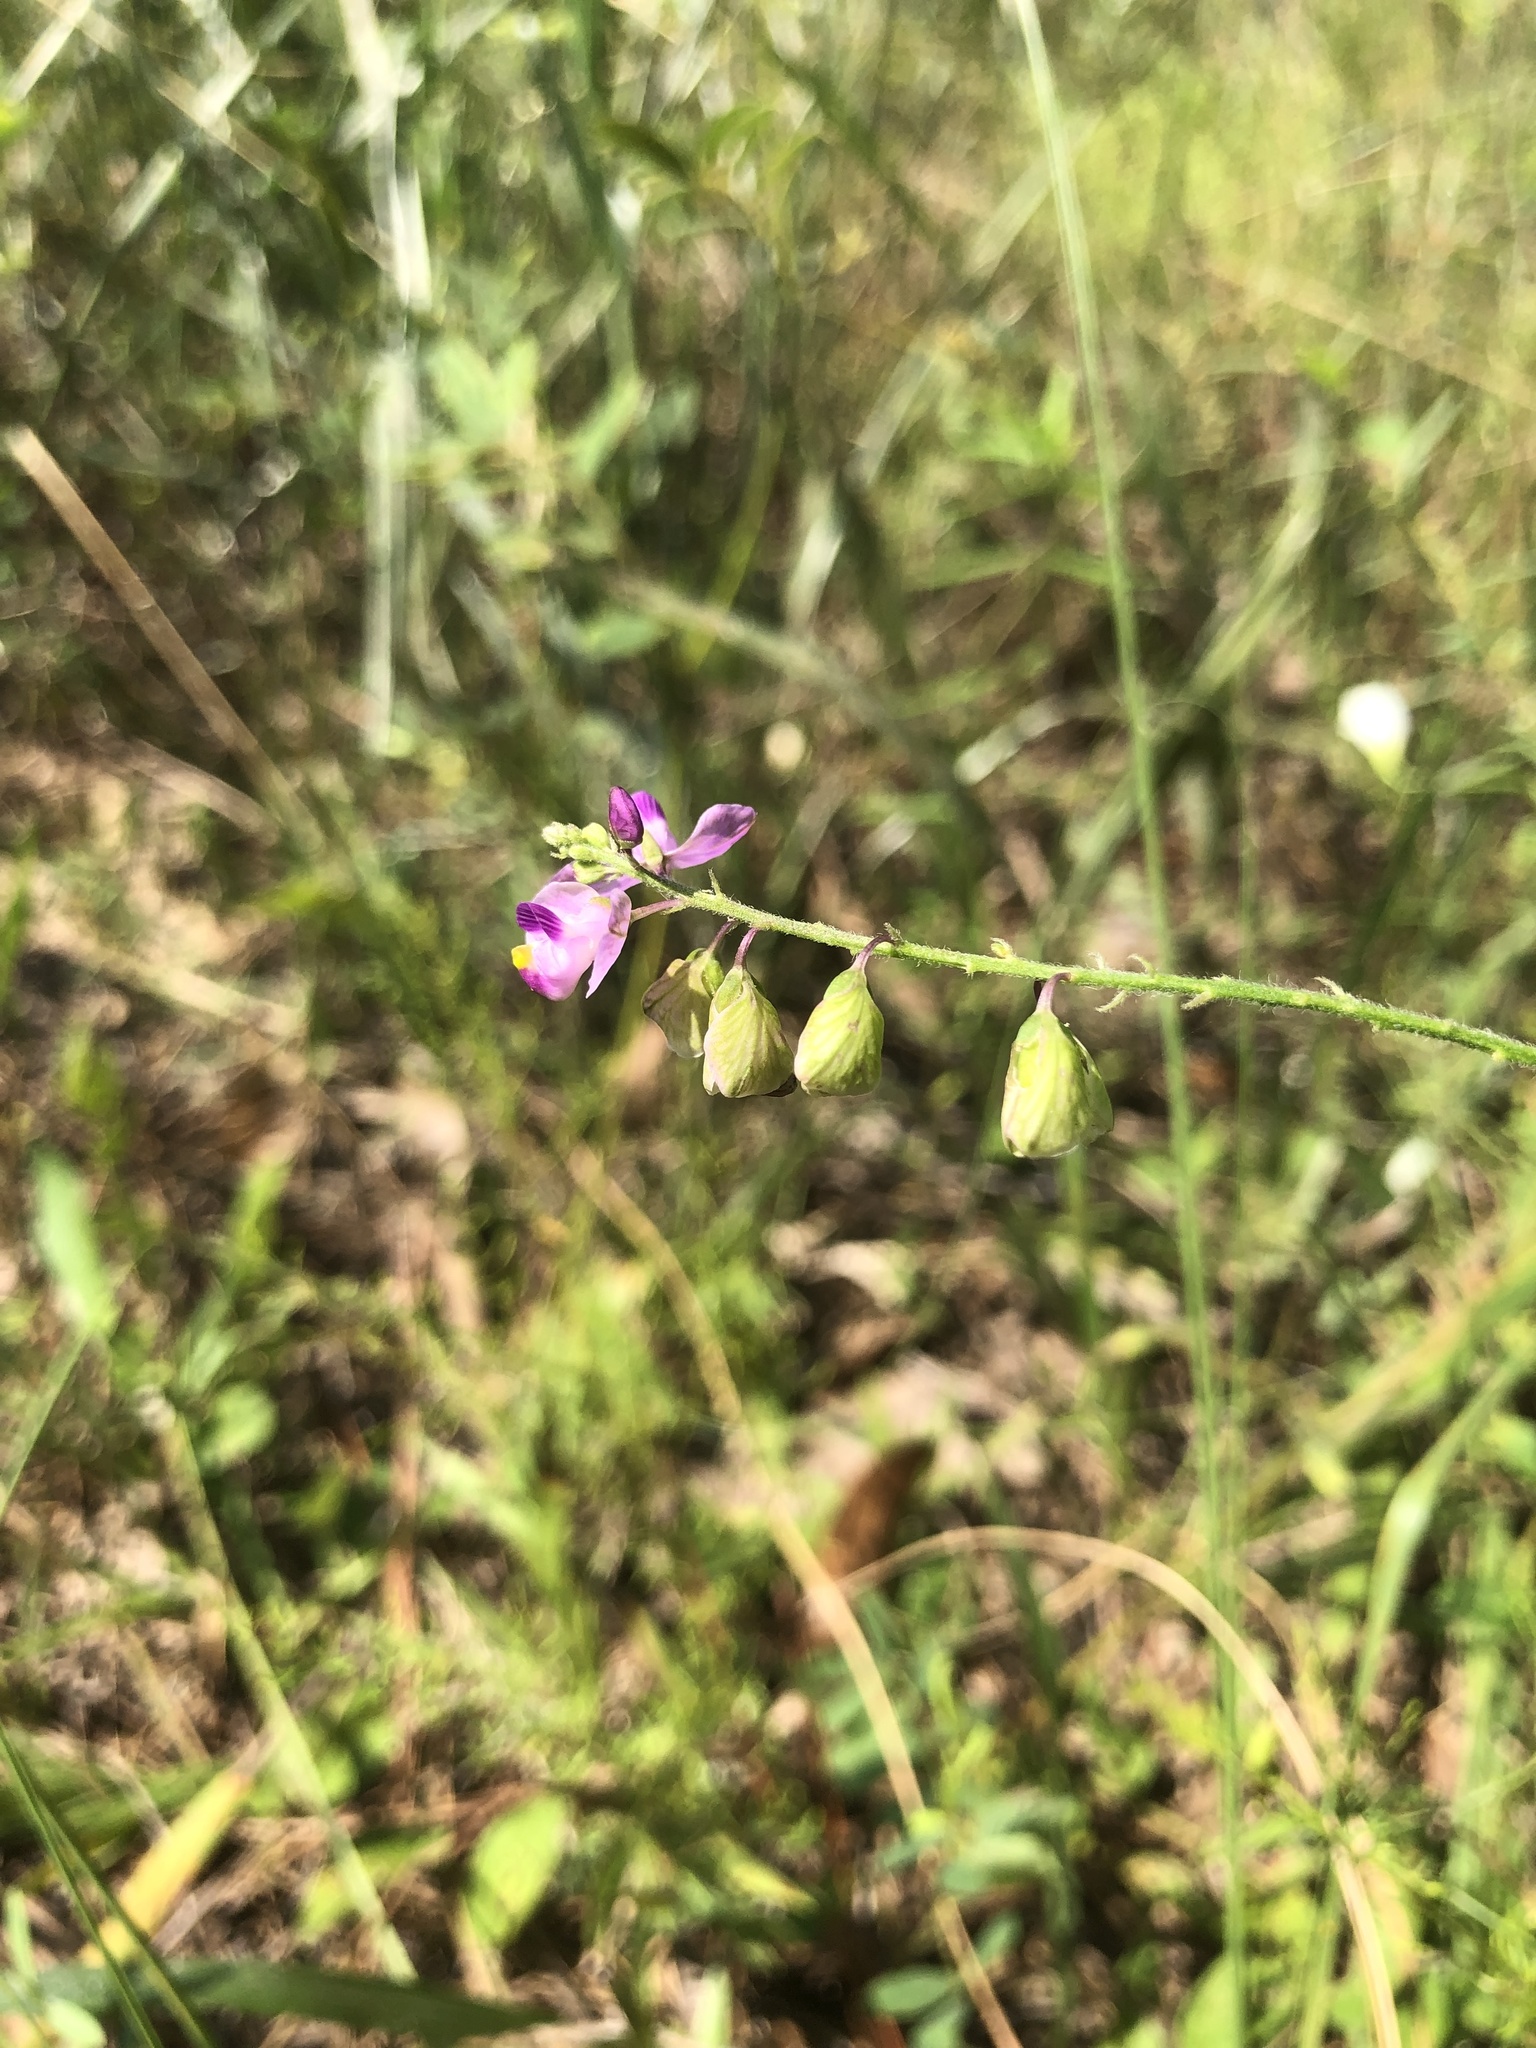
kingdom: Plantae
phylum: Tracheophyta
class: Magnoliopsida
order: Fabales
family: Polygalaceae
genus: Asemeia
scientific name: Asemeia grandiflora
